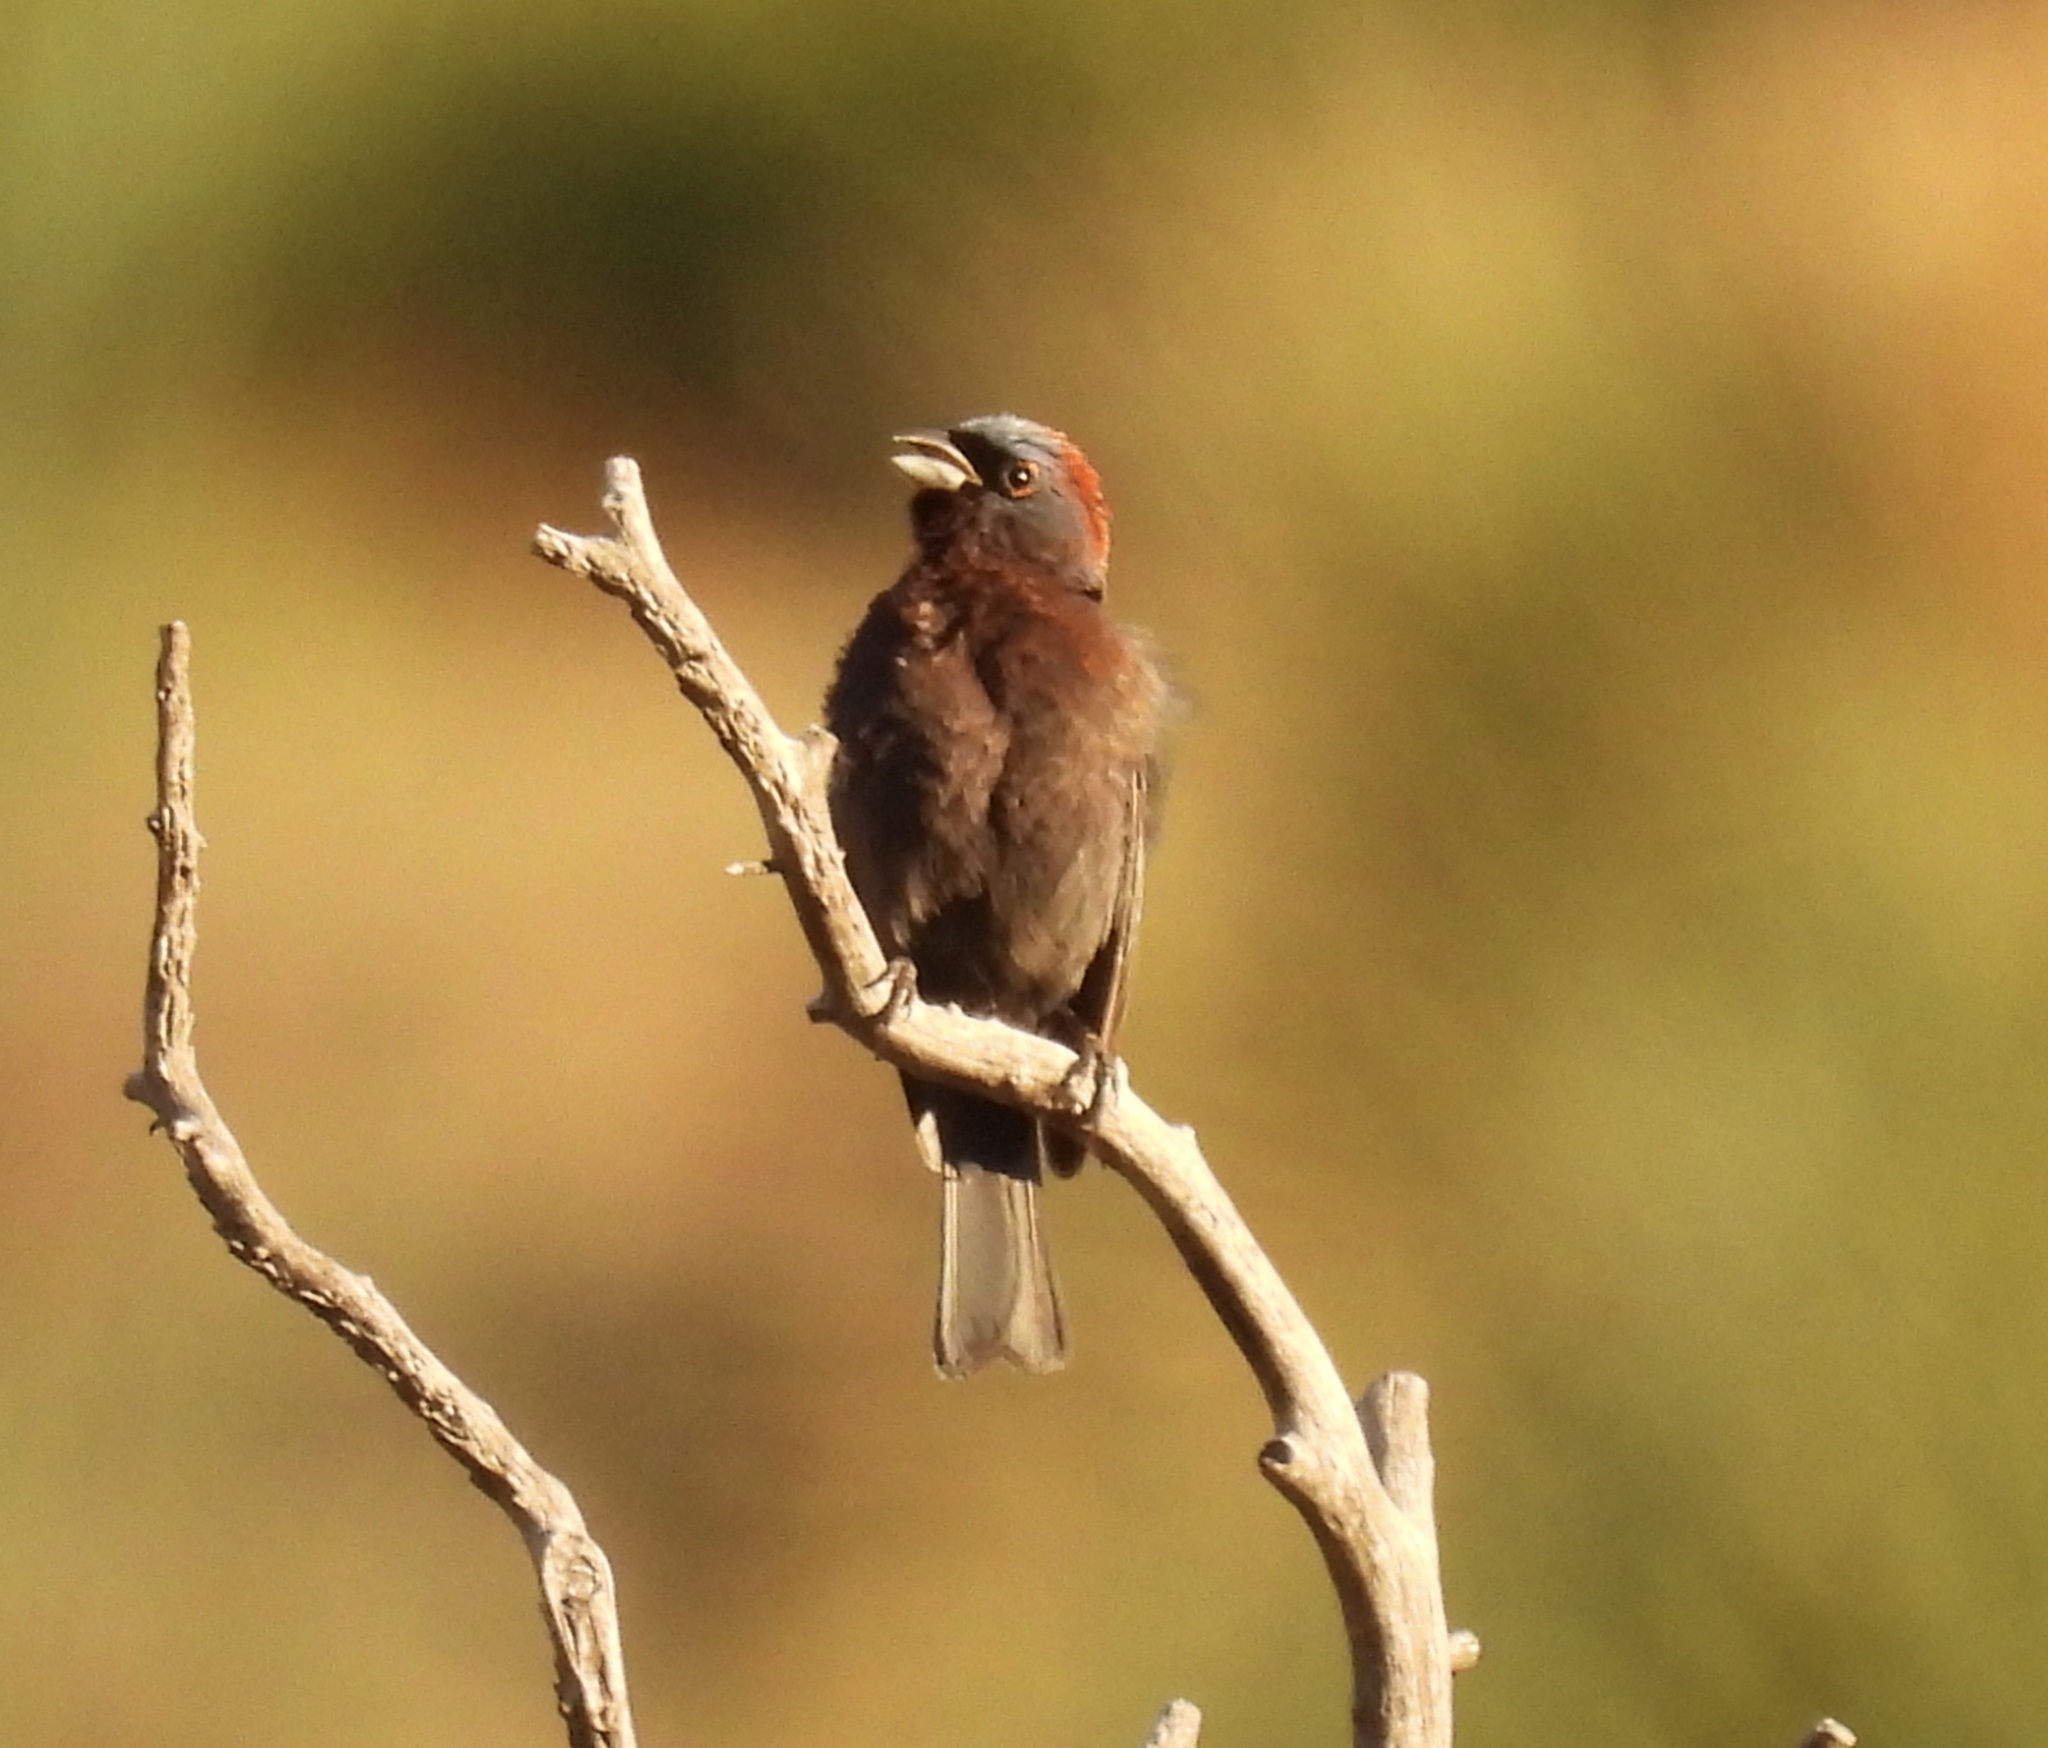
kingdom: Animalia
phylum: Chordata
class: Aves
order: Passeriformes
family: Cardinalidae
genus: Passerina
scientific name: Passerina versicolor
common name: Varied bunting
